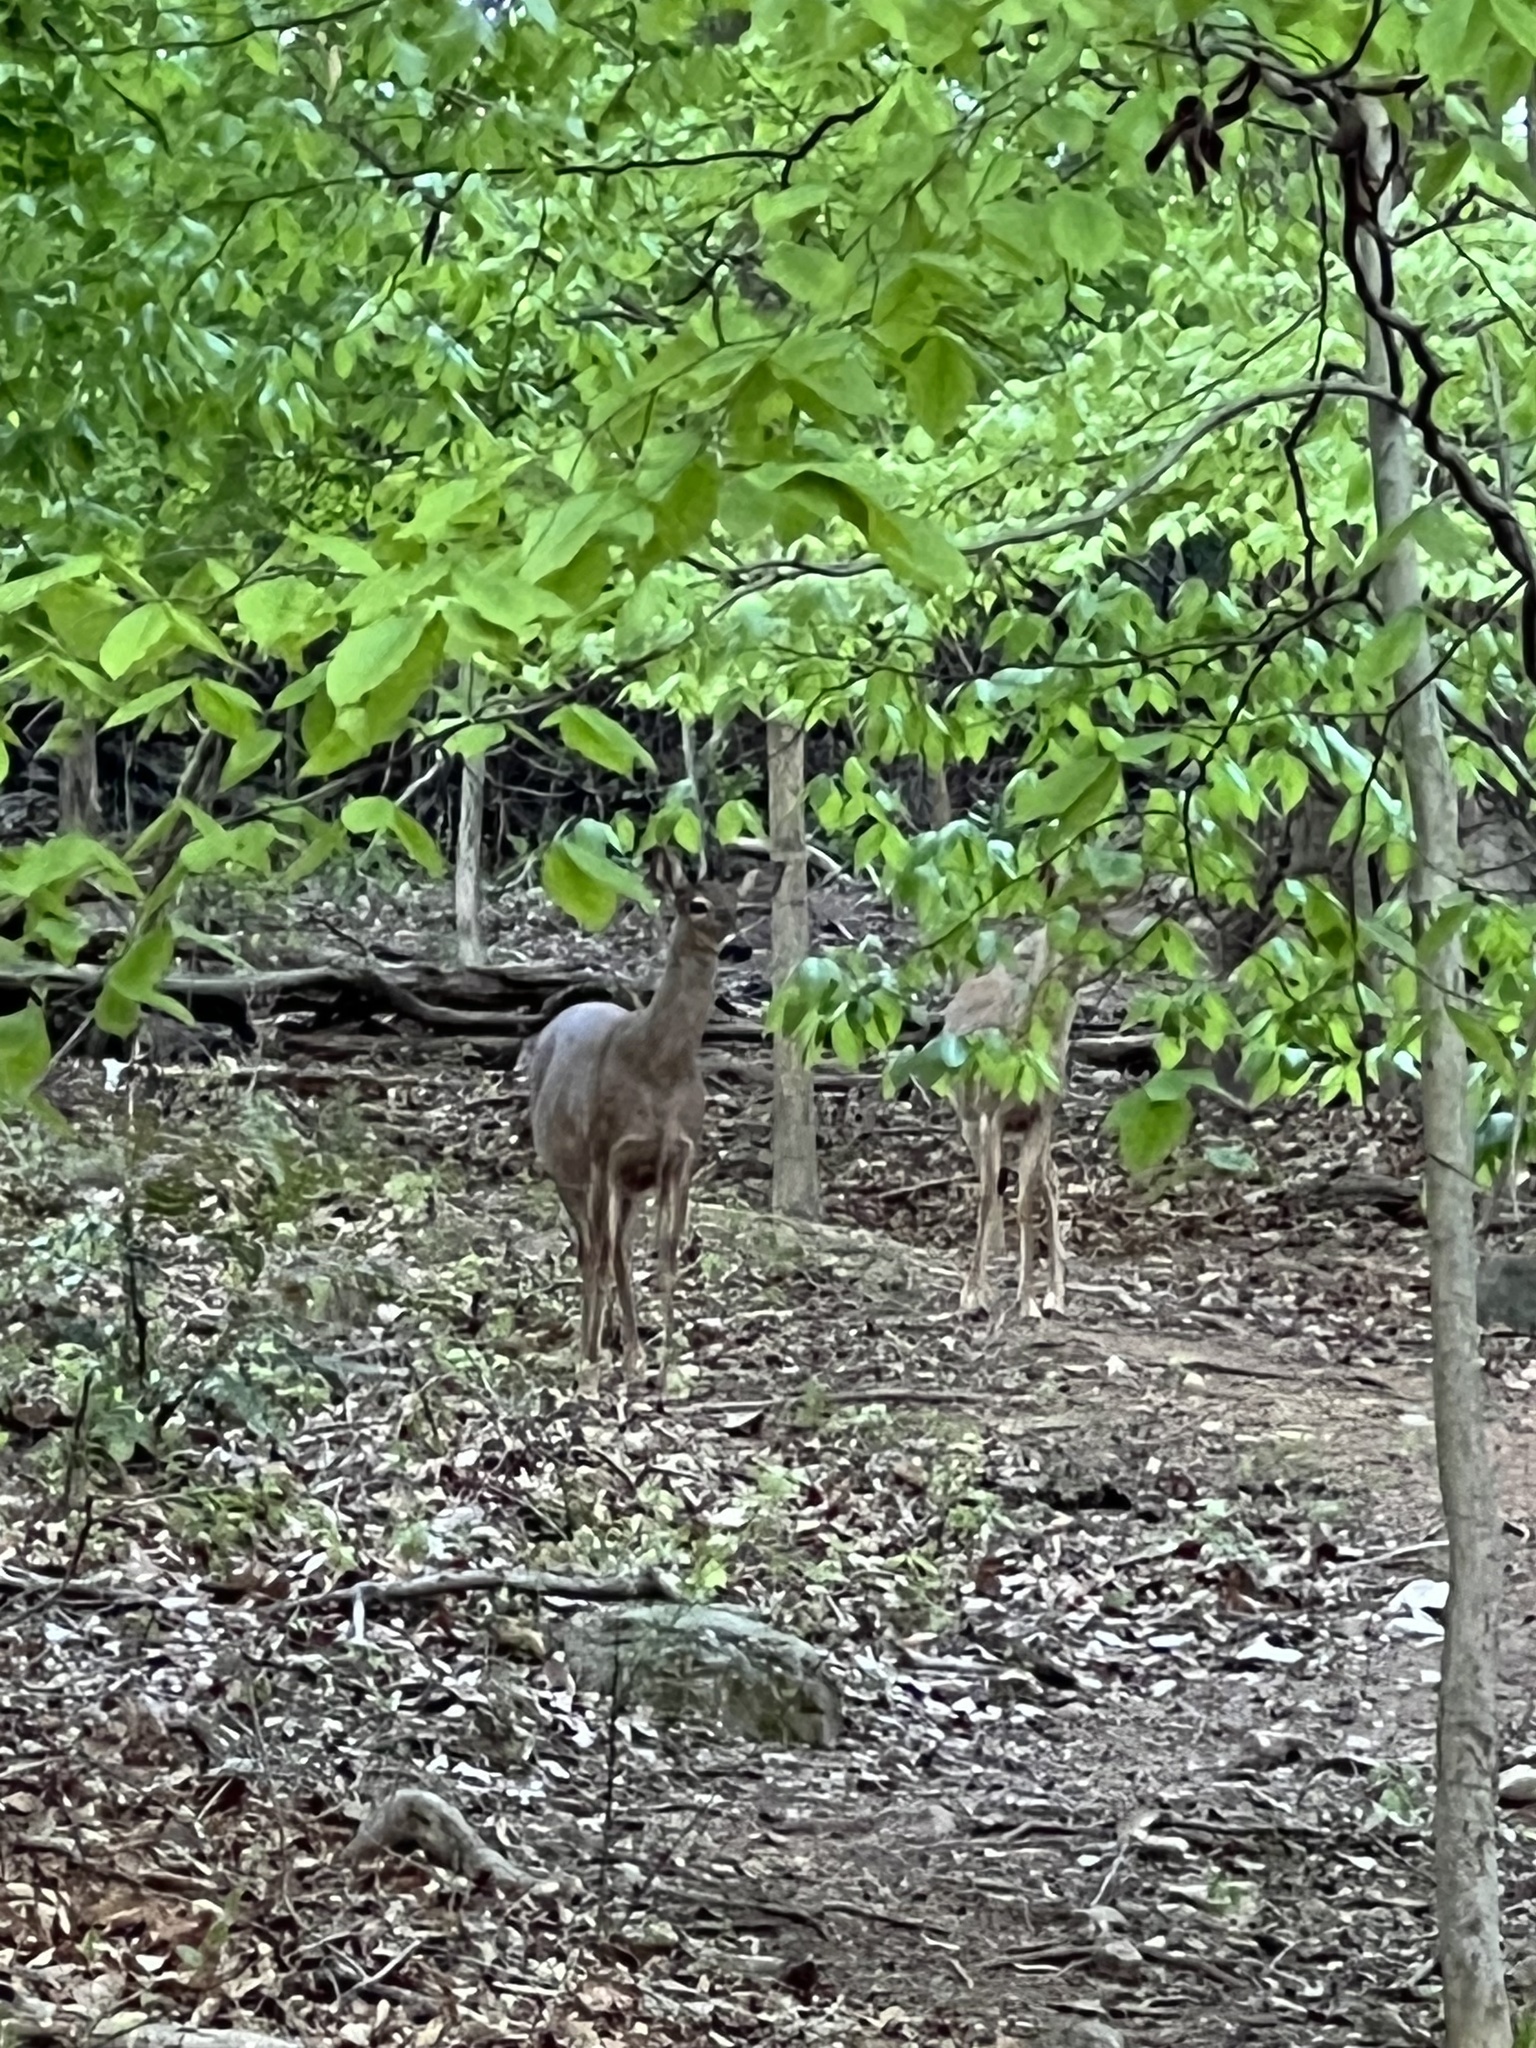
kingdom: Animalia
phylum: Chordata
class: Mammalia
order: Artiodactyla
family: Cervidae
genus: Odocoileus
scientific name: Odocoileus virginianus
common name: White-tailed deer
